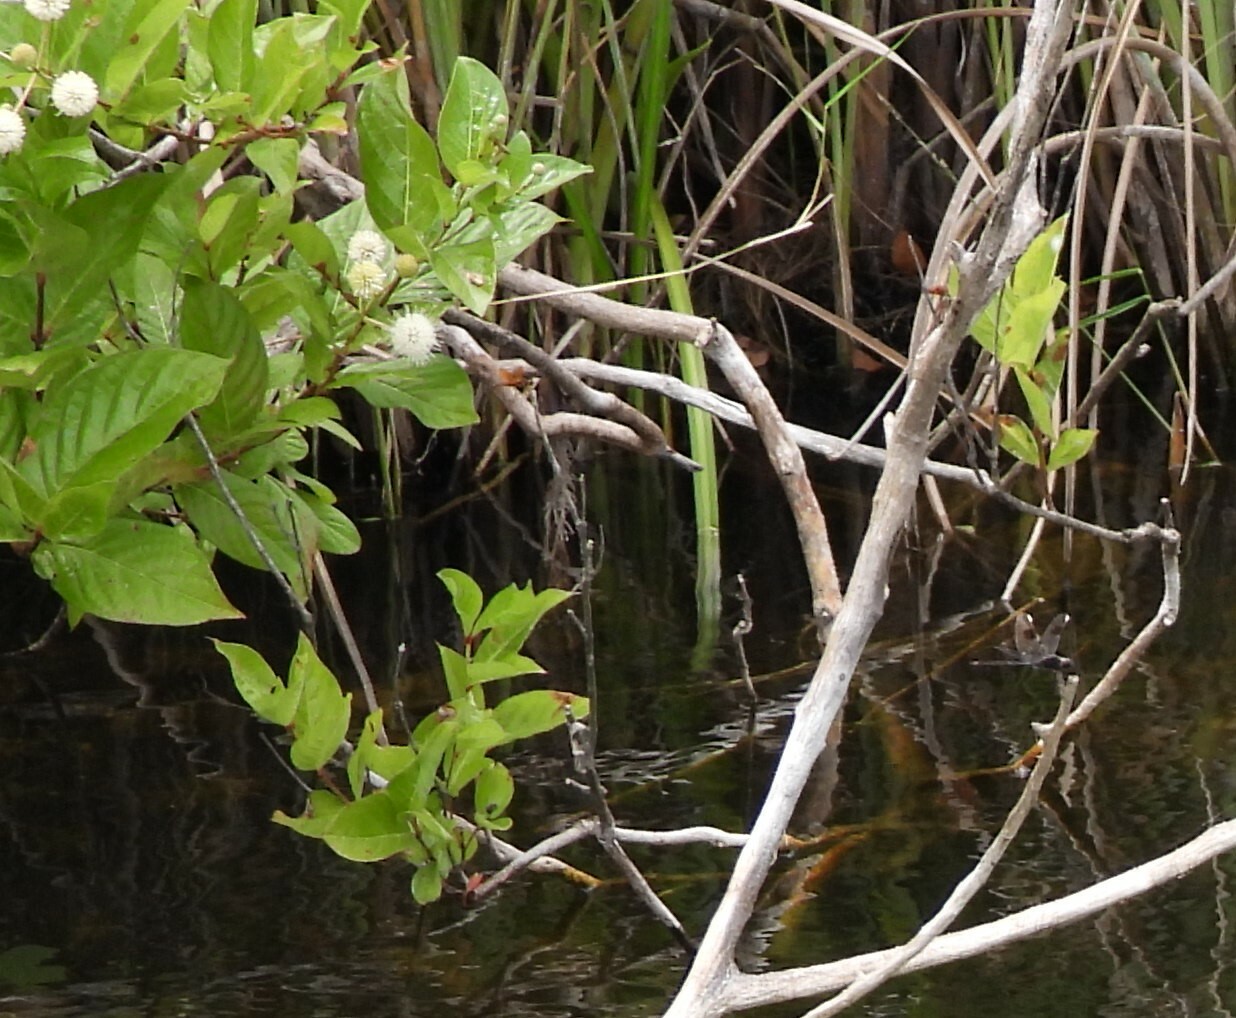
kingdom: Plantae
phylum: Tracheophyta
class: Magnoliopsida
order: Gentianales
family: Rubiaceae
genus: Cephalanthus
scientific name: Cephalanthus occidentalis
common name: Button-willow
